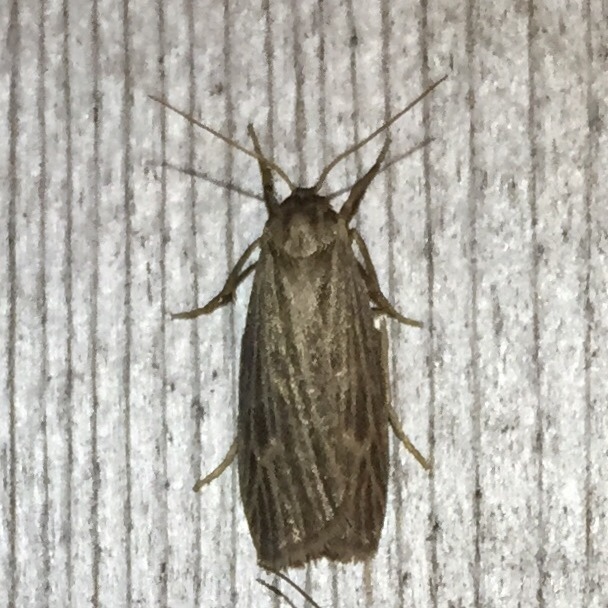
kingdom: Animalia
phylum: Arthropoda
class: Insecta
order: Lepidoptera
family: Erebidae
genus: Crambidia
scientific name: Crambidia pallida
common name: Pale lichen moth
